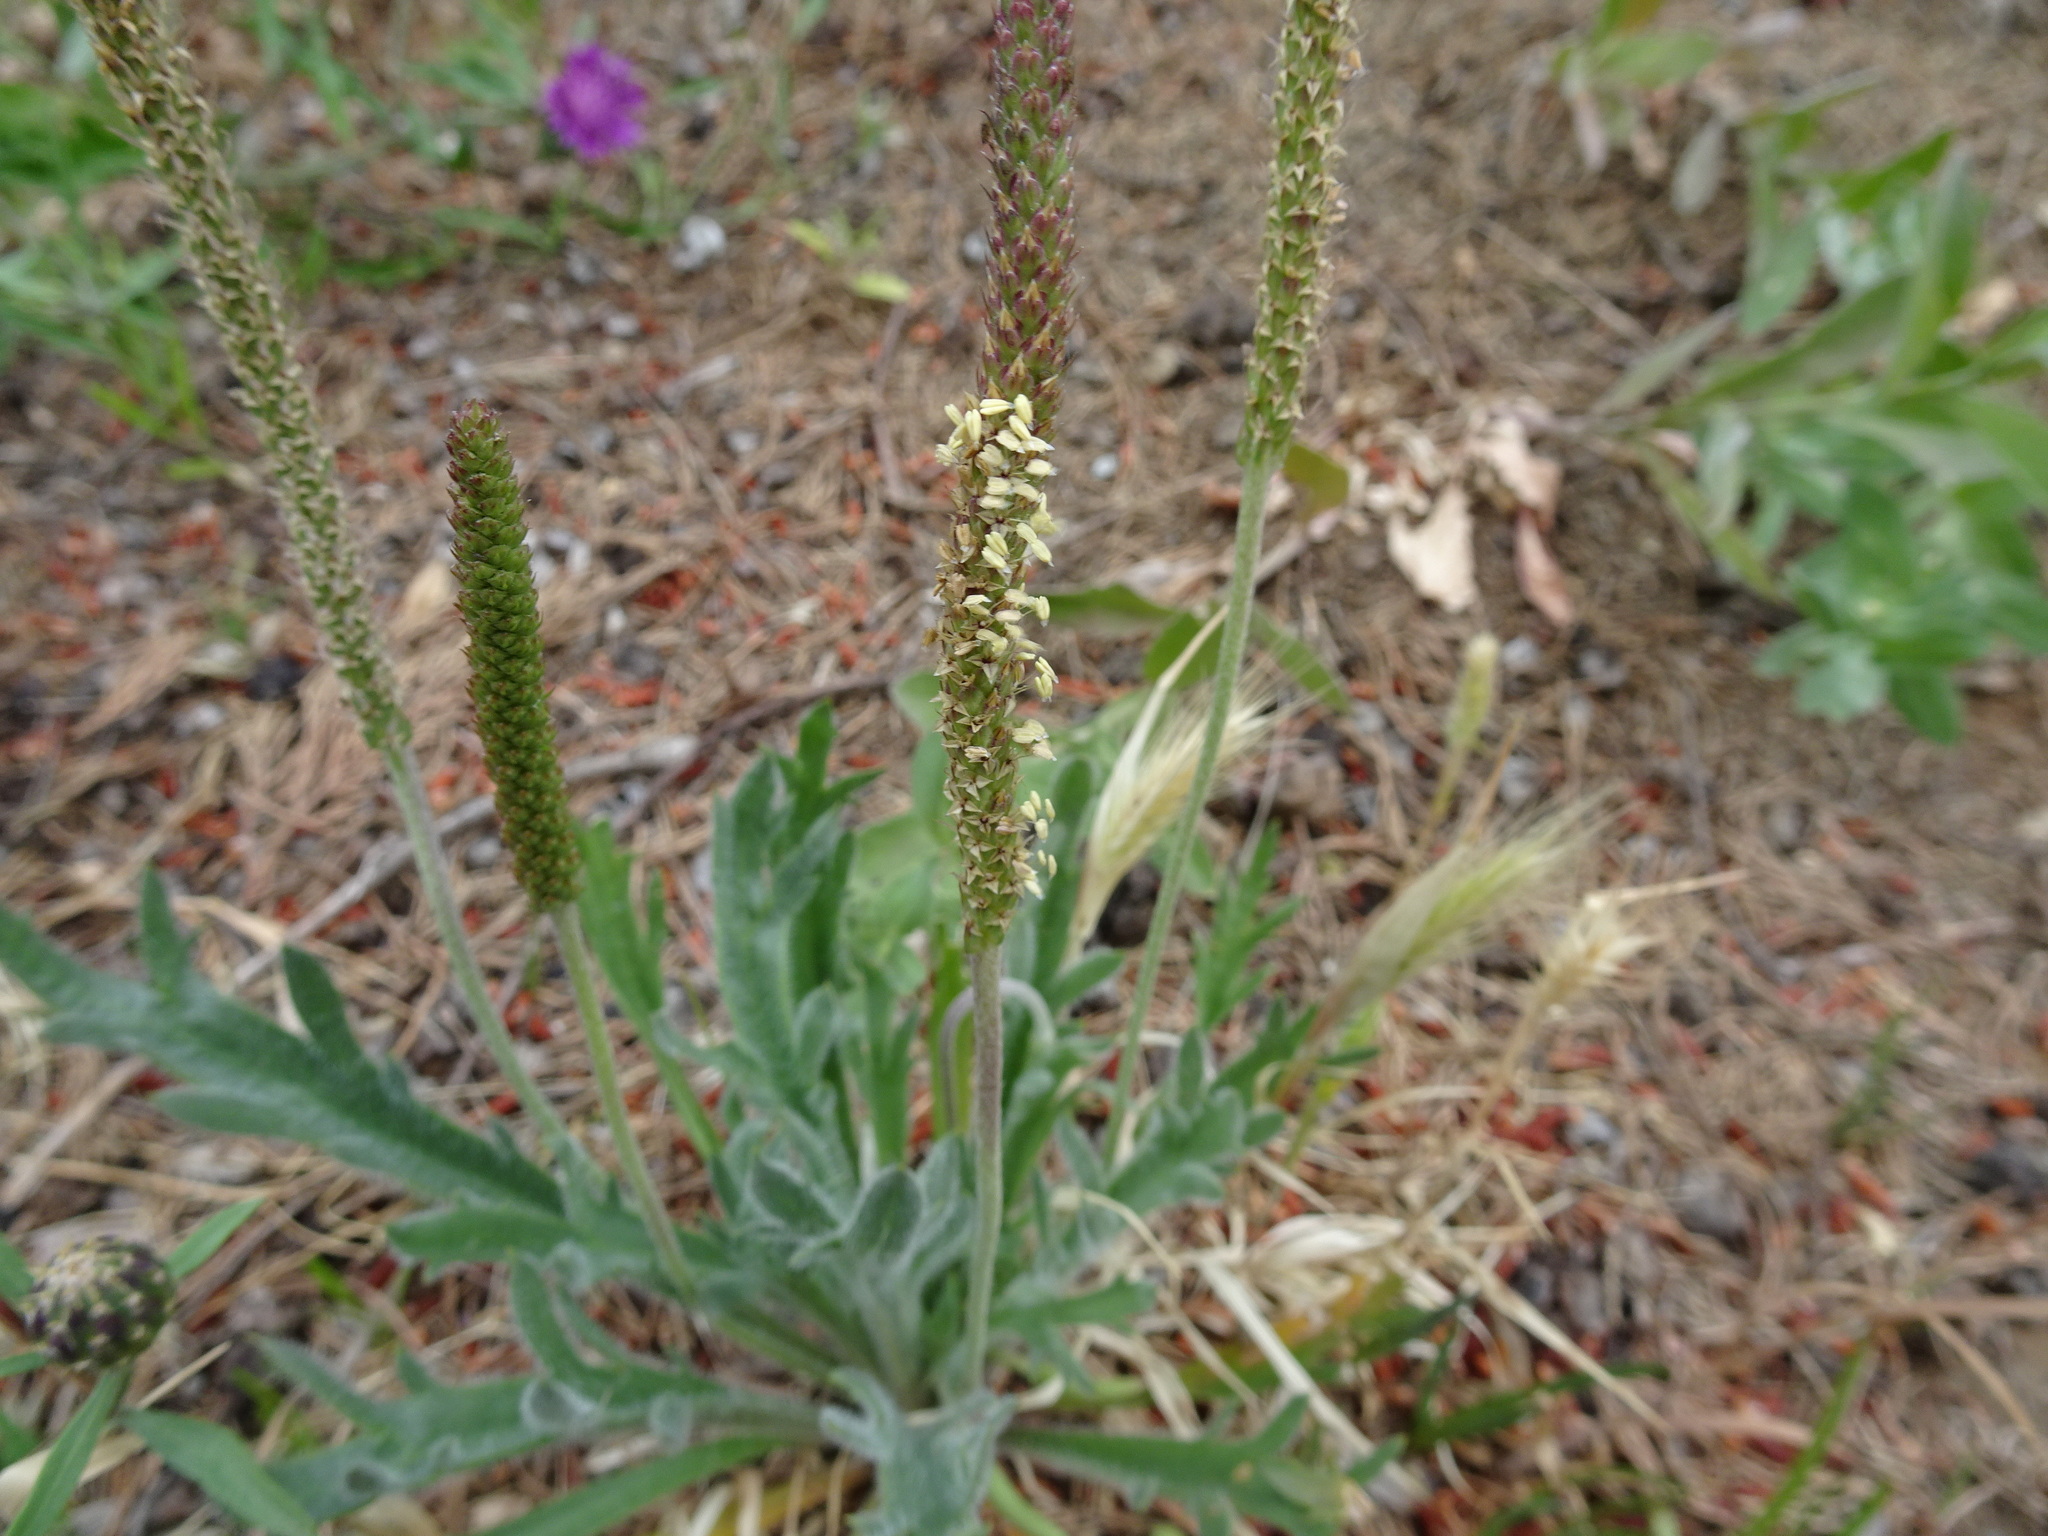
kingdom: Plantae
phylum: Tracheophyta
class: Magnoliopsida
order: Lamiales
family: Plantaginaceae
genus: Plantago
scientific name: Plantago coronopus
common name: Buck's-horn plantain
